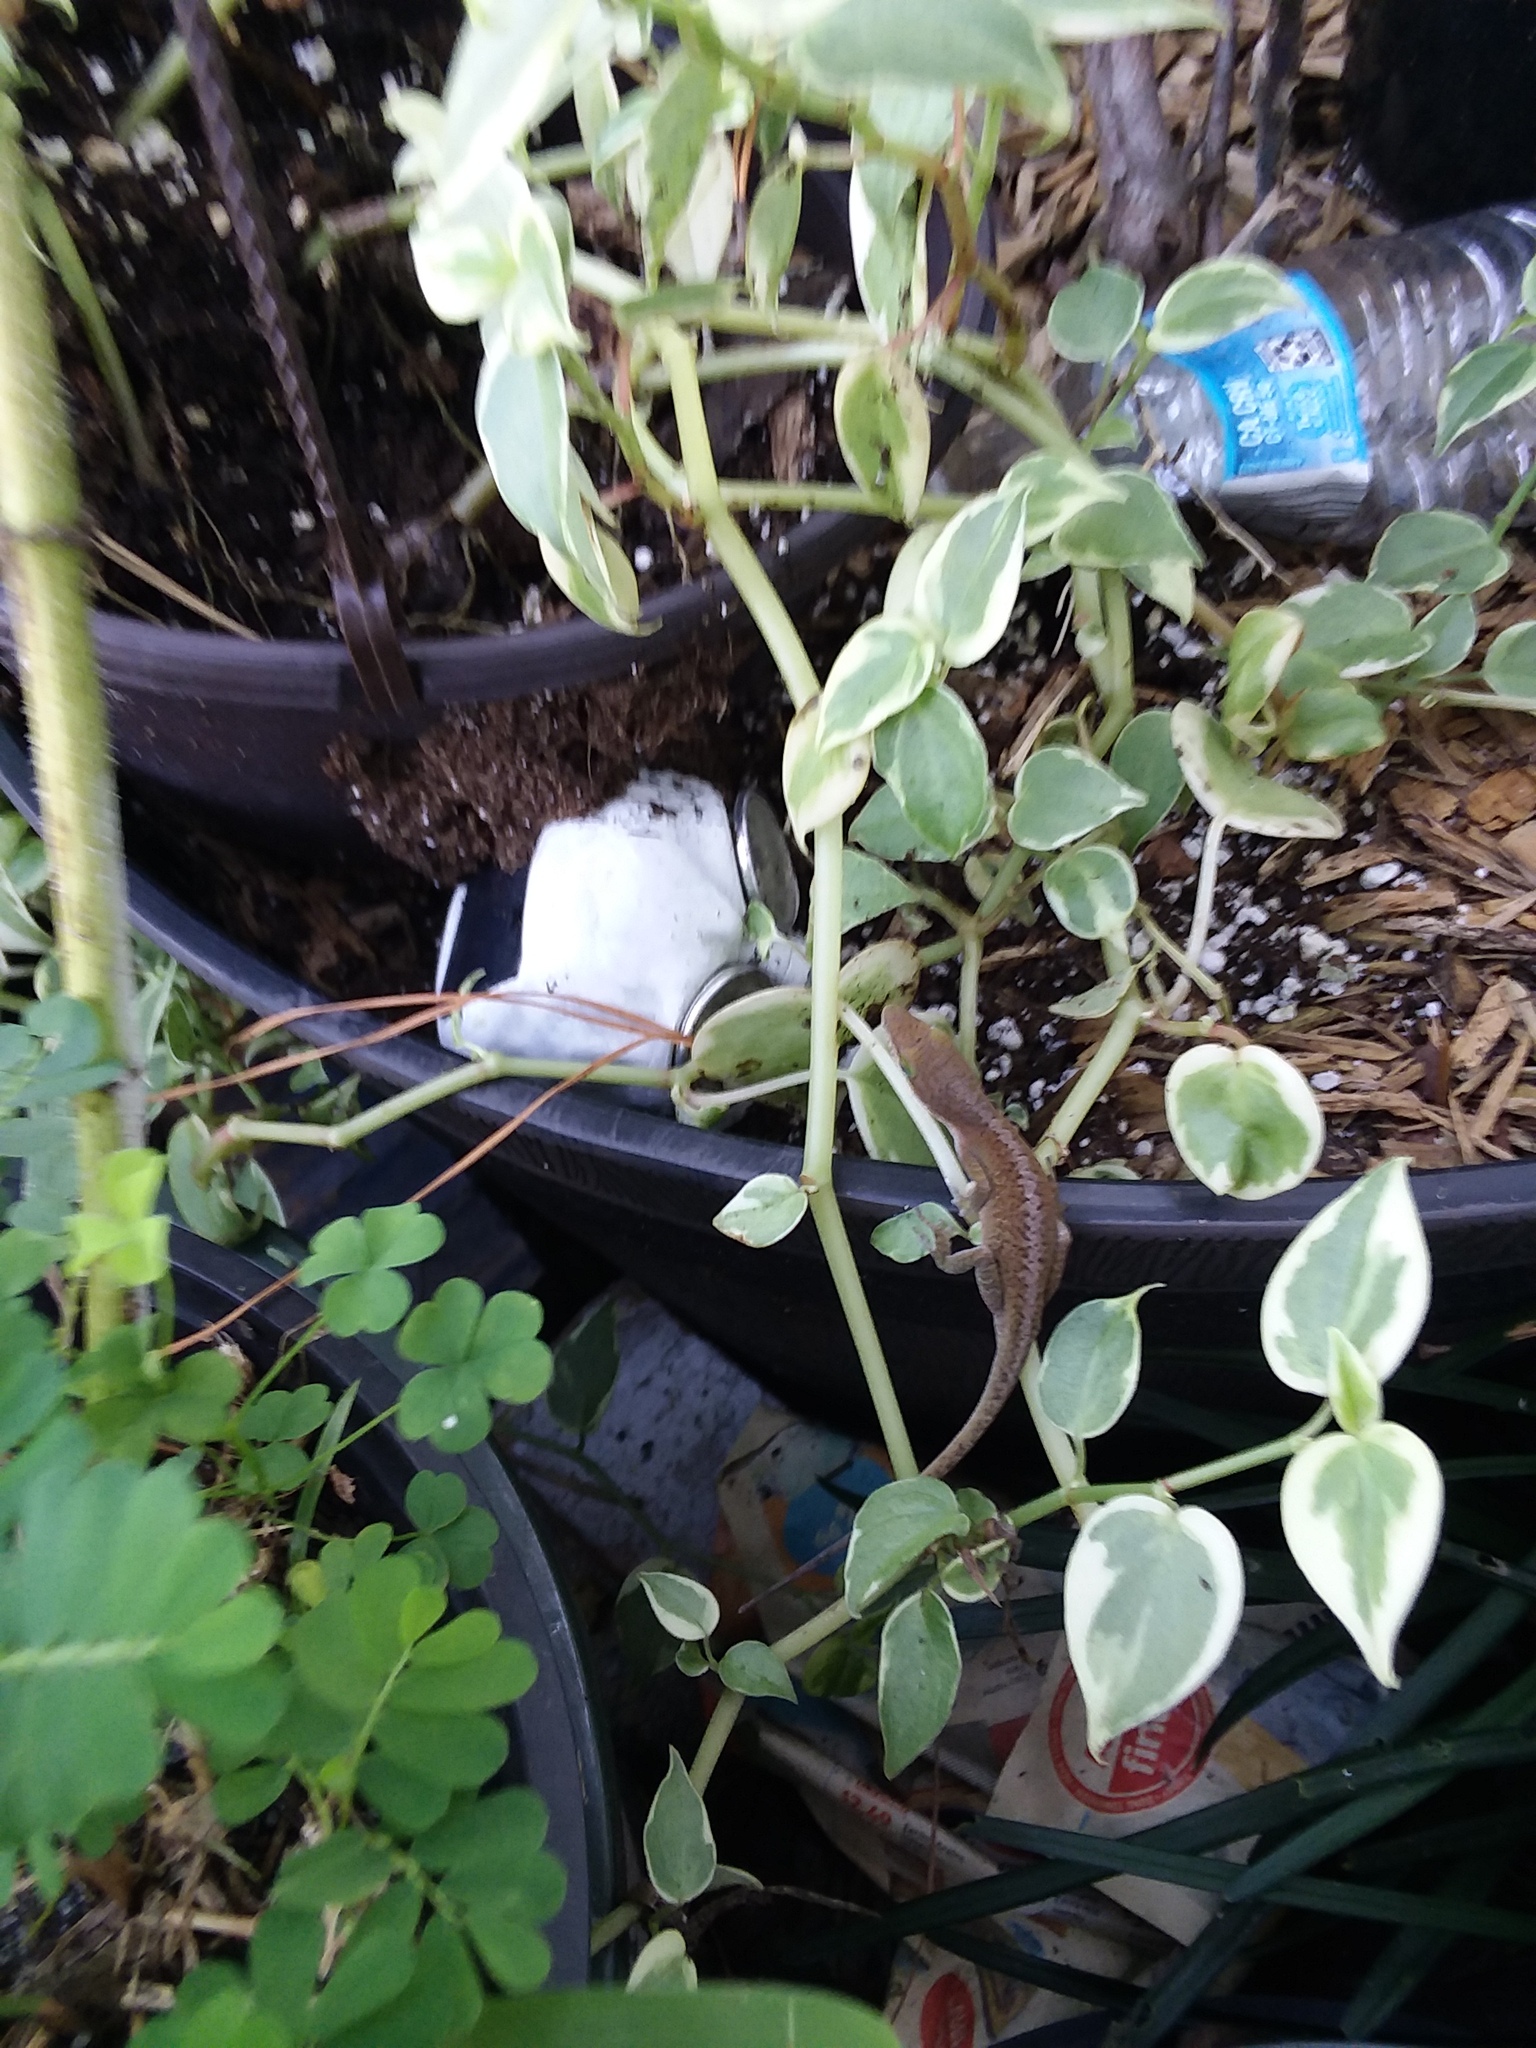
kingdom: Animalia
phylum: Chordata
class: Squamata
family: Dactyloidae
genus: Anolis
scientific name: Anolis carolinensis
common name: Green anole
